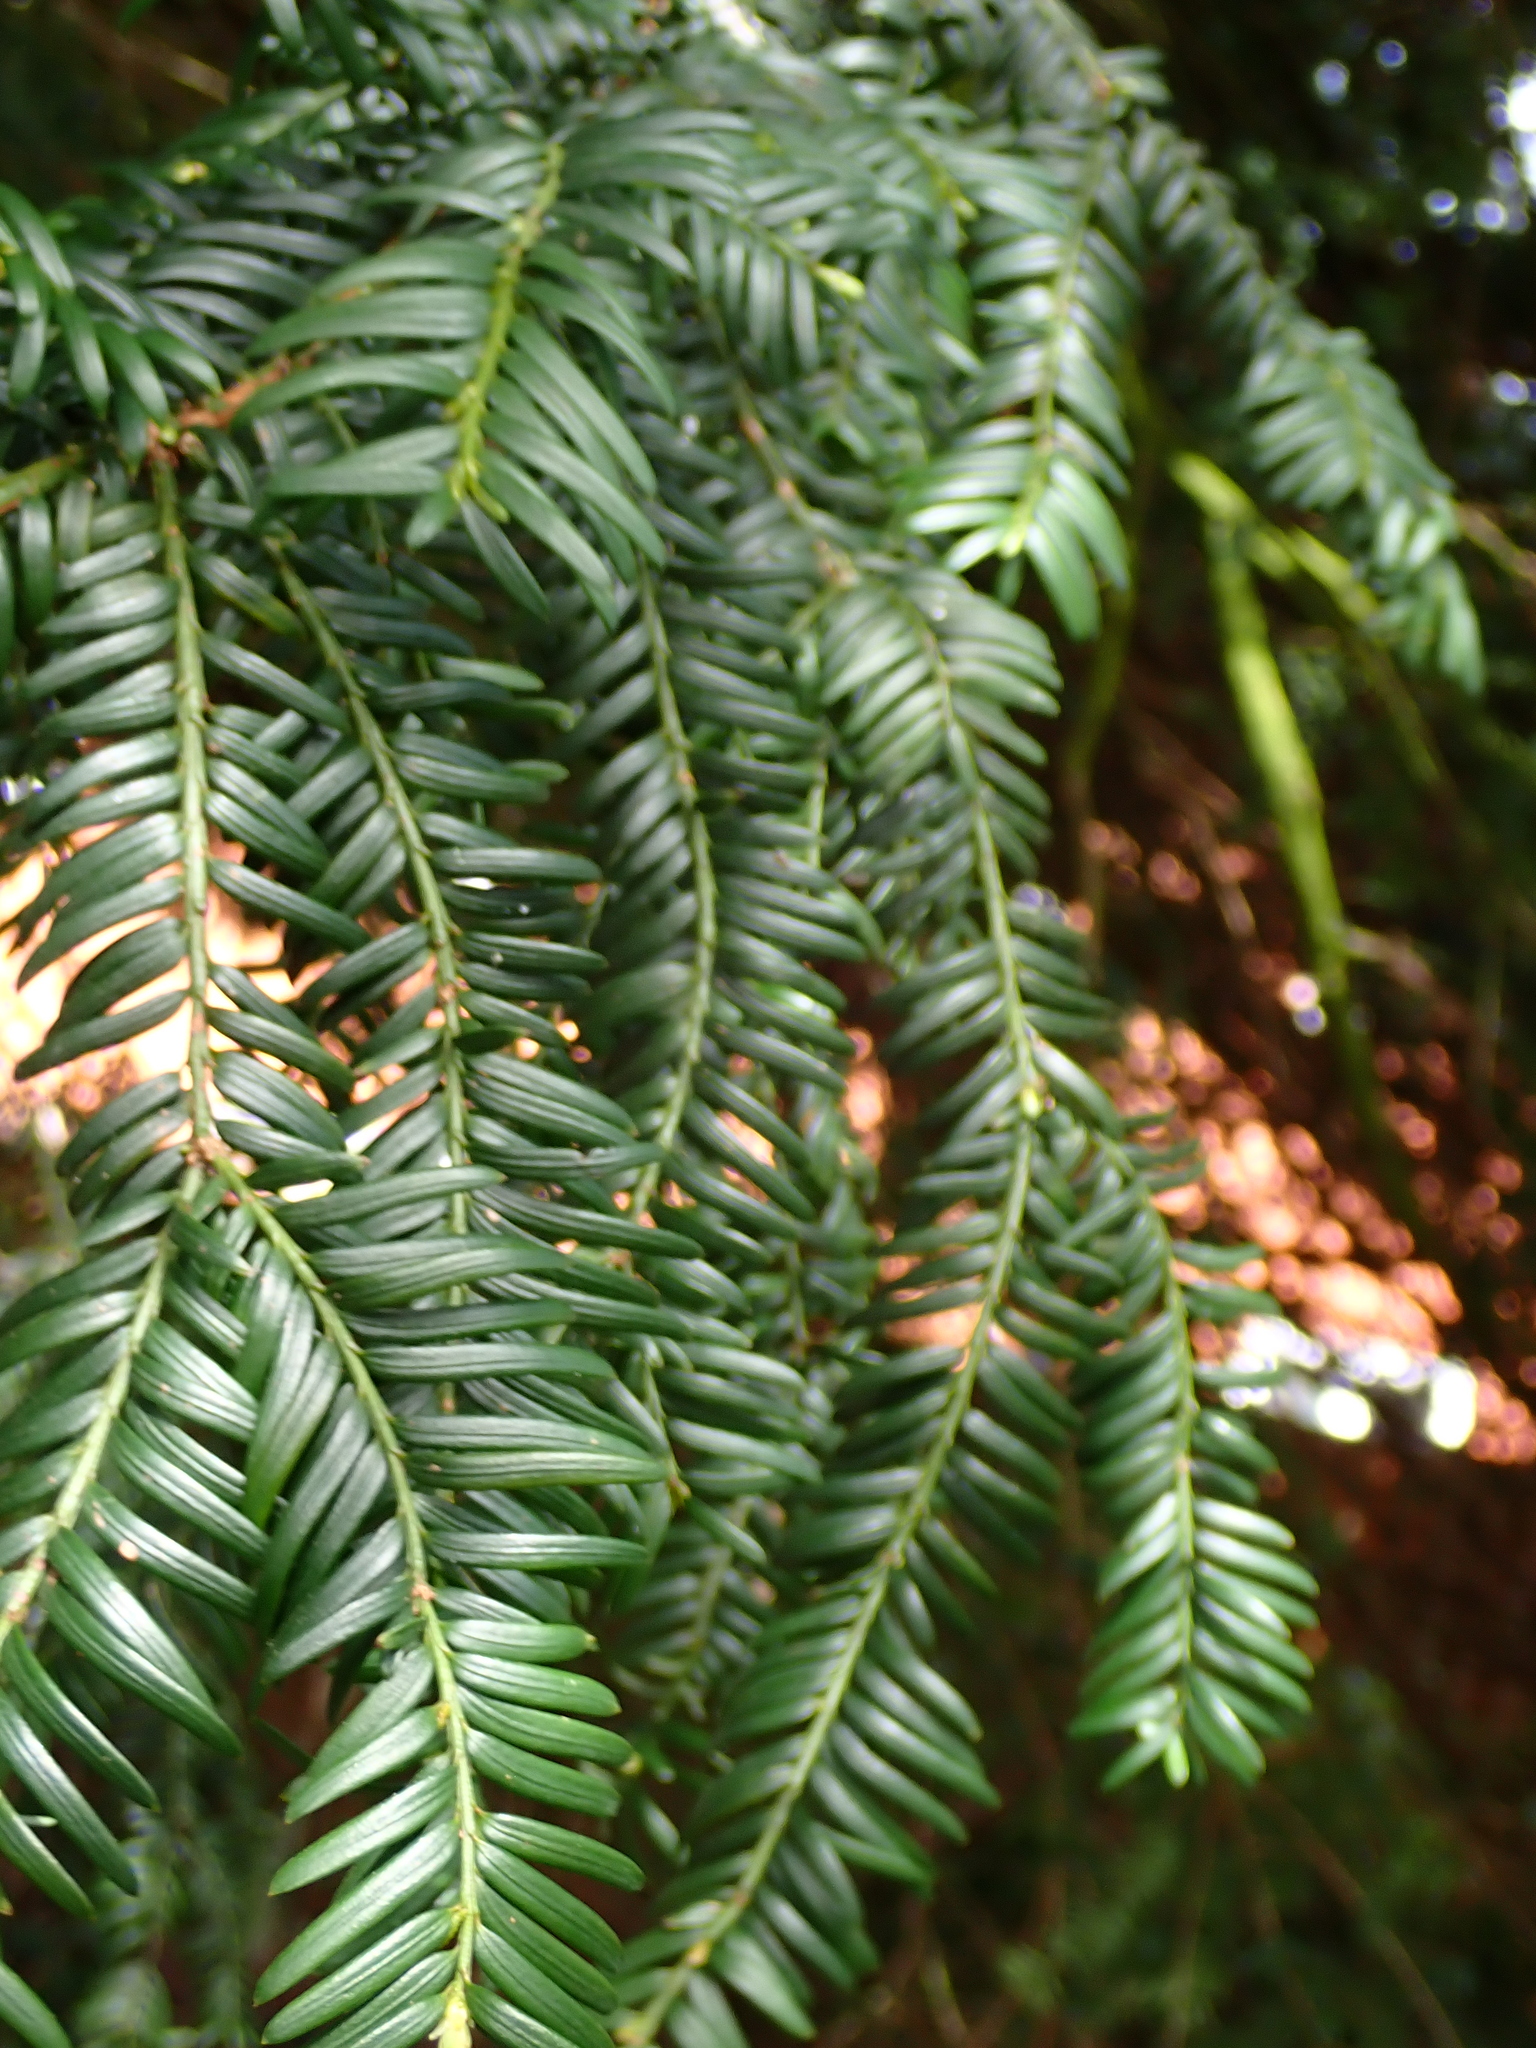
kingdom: Plantae
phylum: Tracheophyta
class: Pinopsida
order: Pinales
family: Taxaceae
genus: Taxus
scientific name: Taxus baccata
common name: Yew
